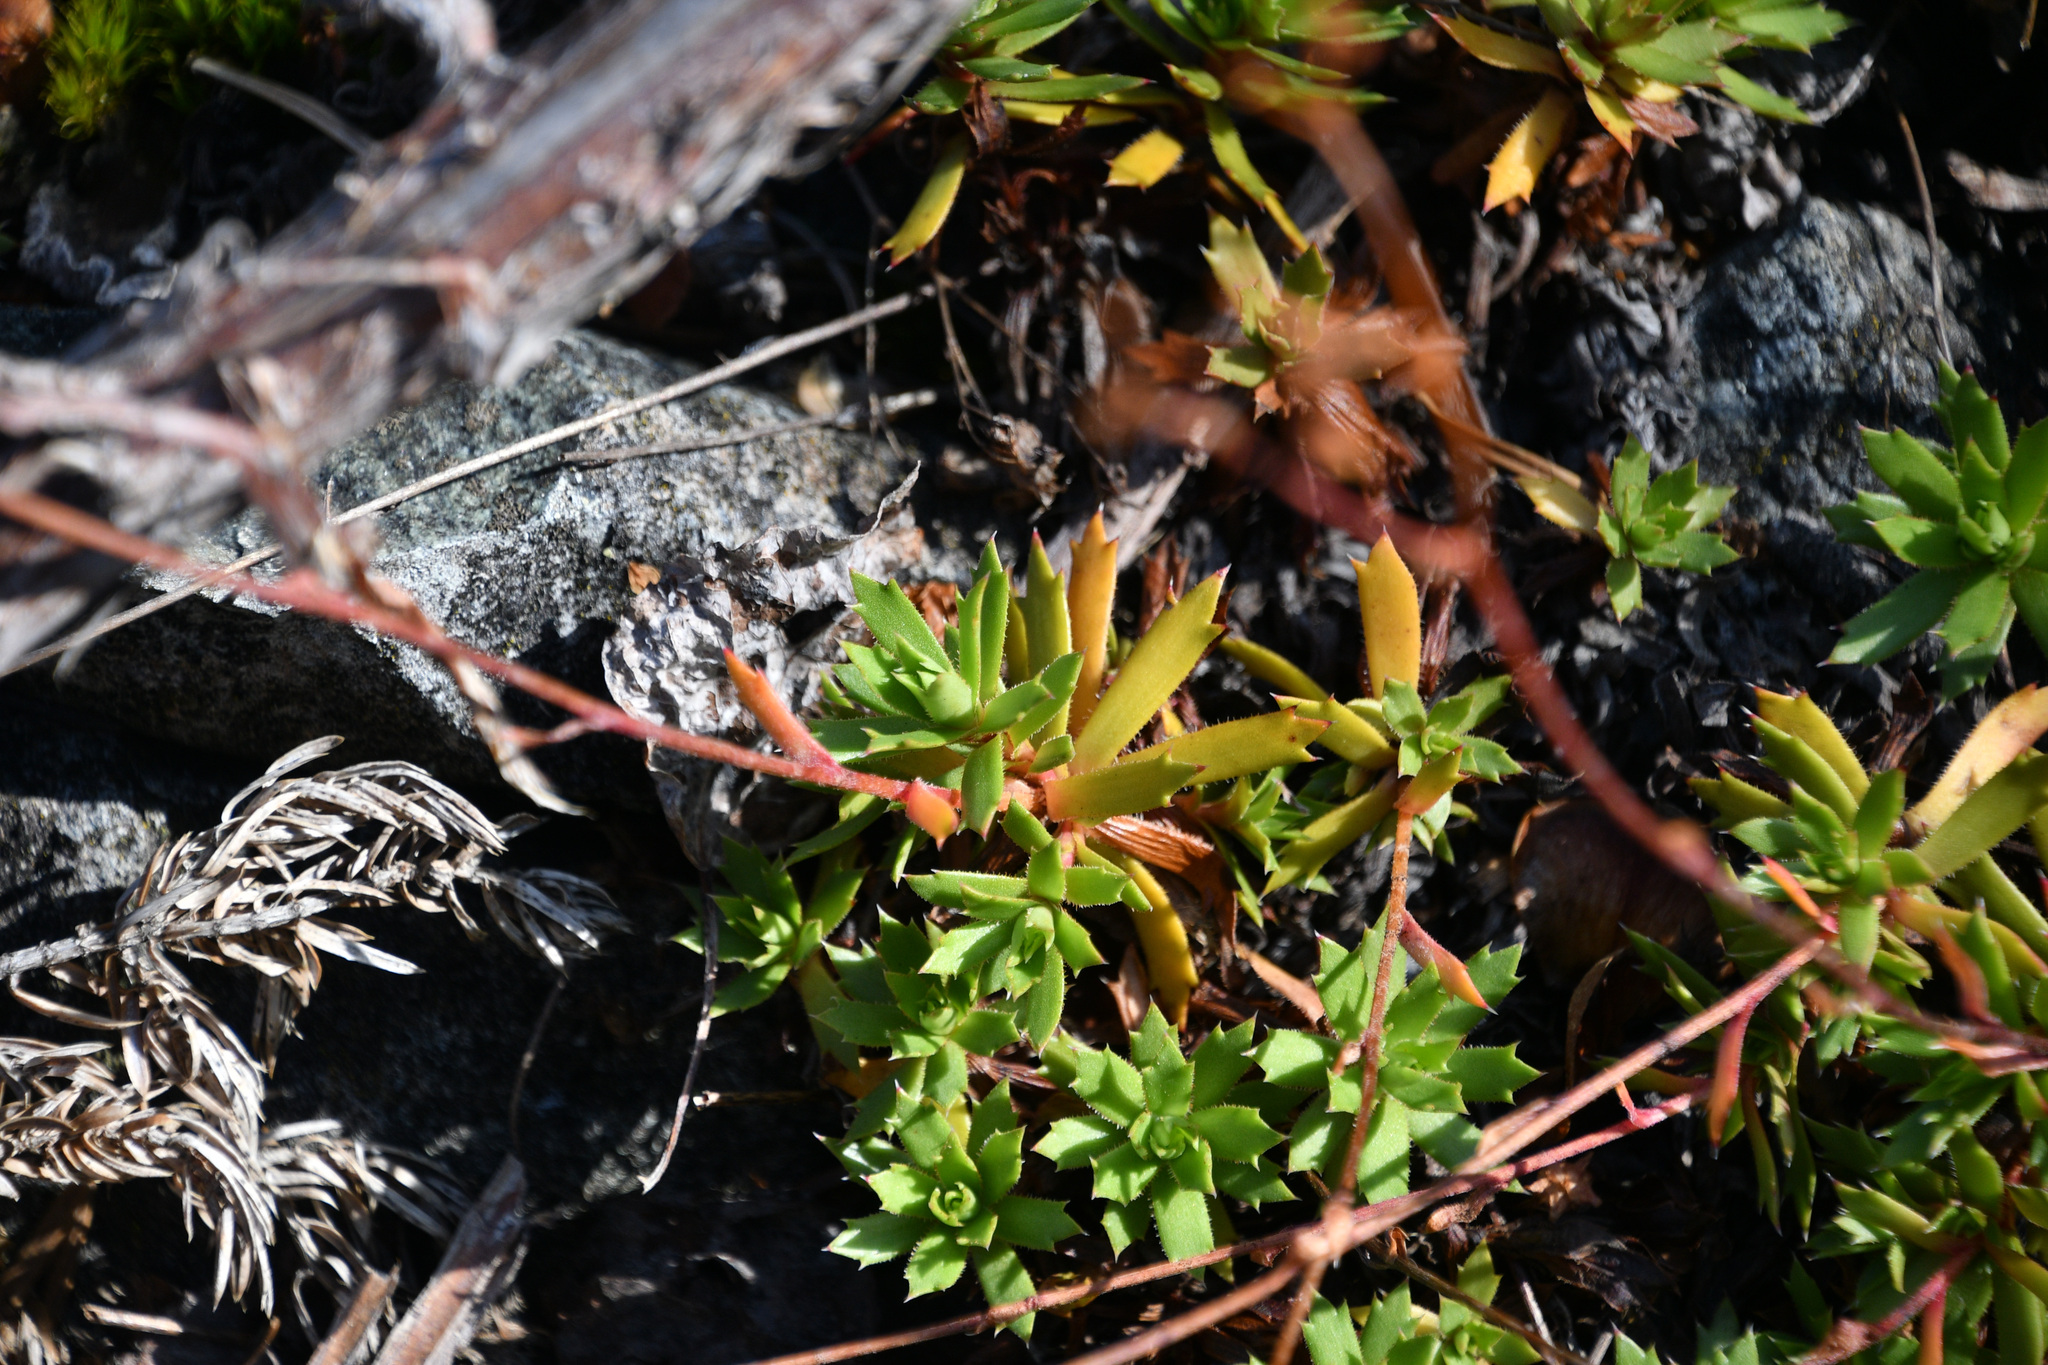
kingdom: Plantae
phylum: Tracheophyta
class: Magnoliopsida
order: Saxifragales
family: Saxifragaceae
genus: Saxifraga
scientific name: Saxifraga tricuspidata
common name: Prickly saxifrage
